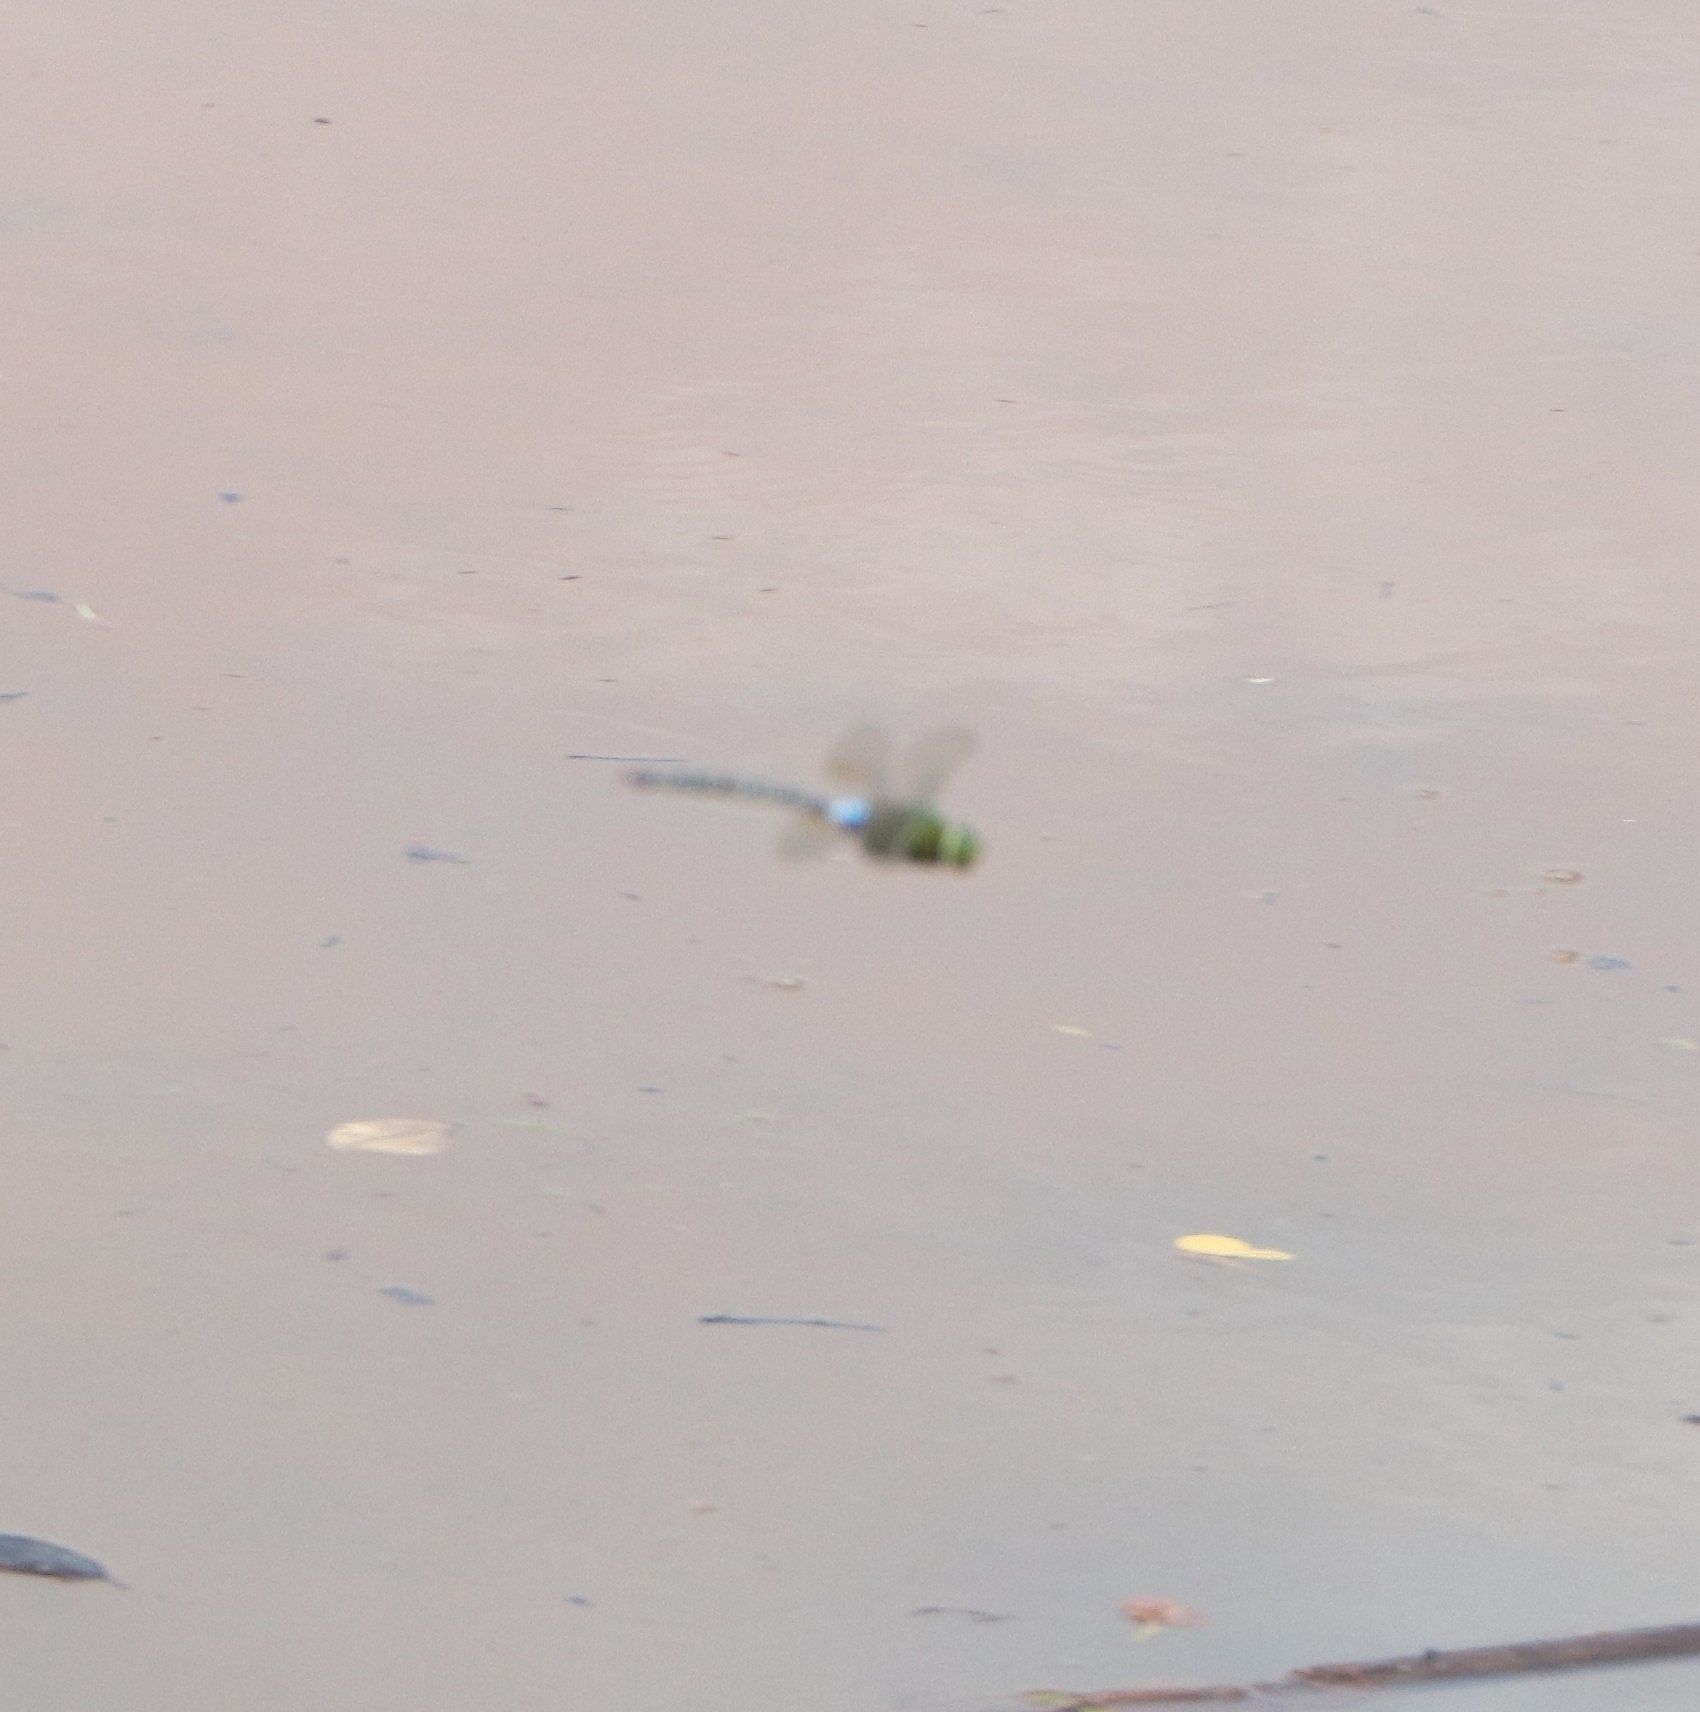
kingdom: Animalia
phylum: Arthropoda
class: Insecta
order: Odonata
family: Aeshnidae
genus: Anax
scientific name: Anax guttatus
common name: Emperor
